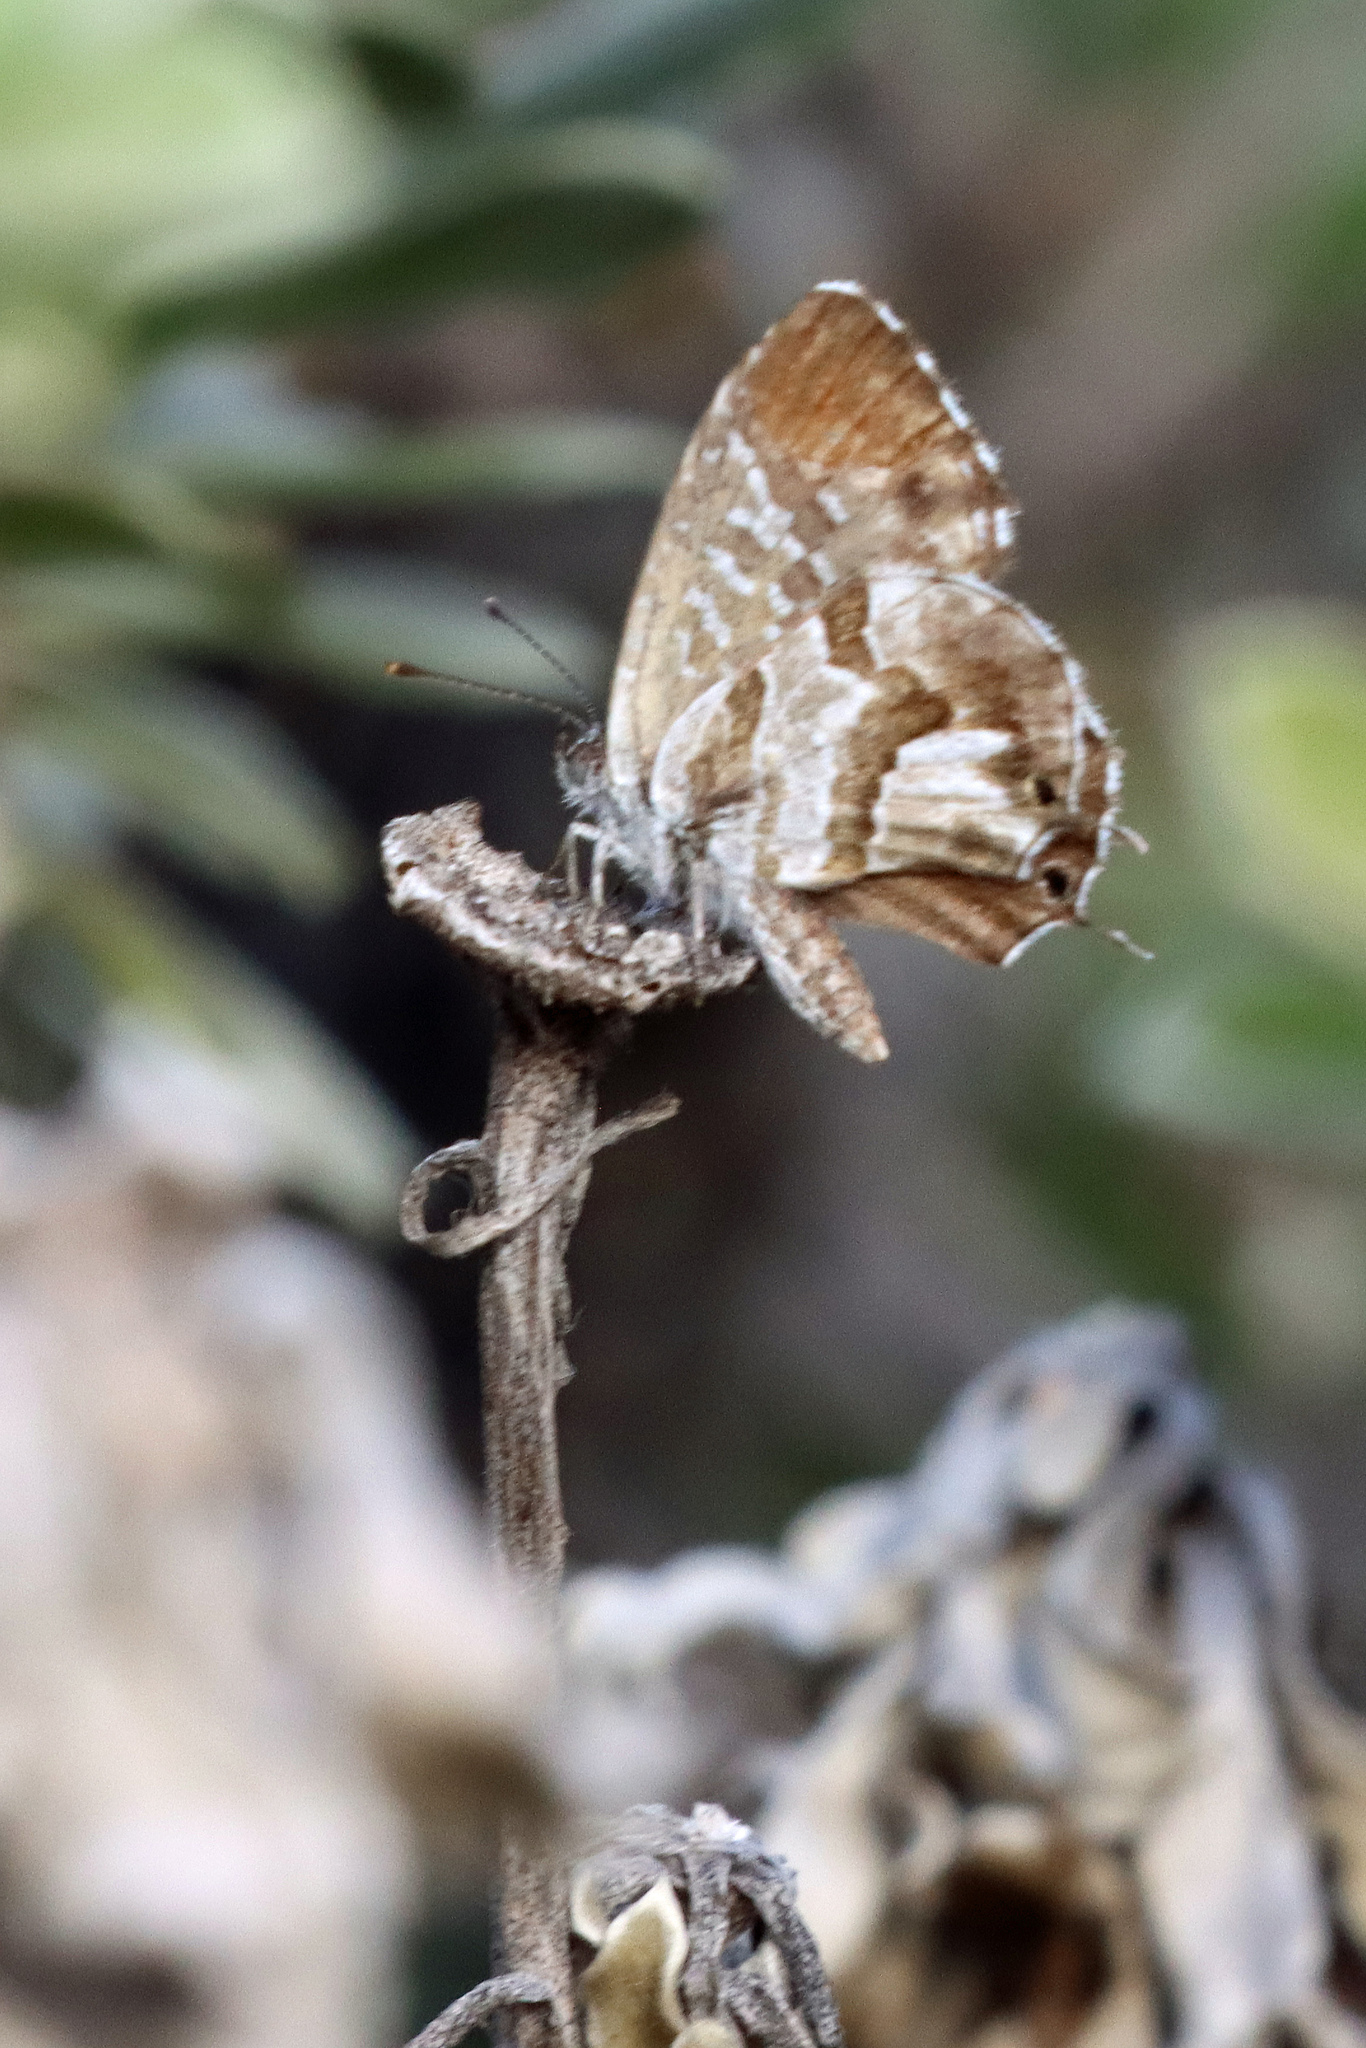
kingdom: Animalia
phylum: Arthropoda
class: Insecta
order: Lepidoptera
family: Lycaenidae
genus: Cacyreus
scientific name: Cacyreus marshalli
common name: Geranium bronze
